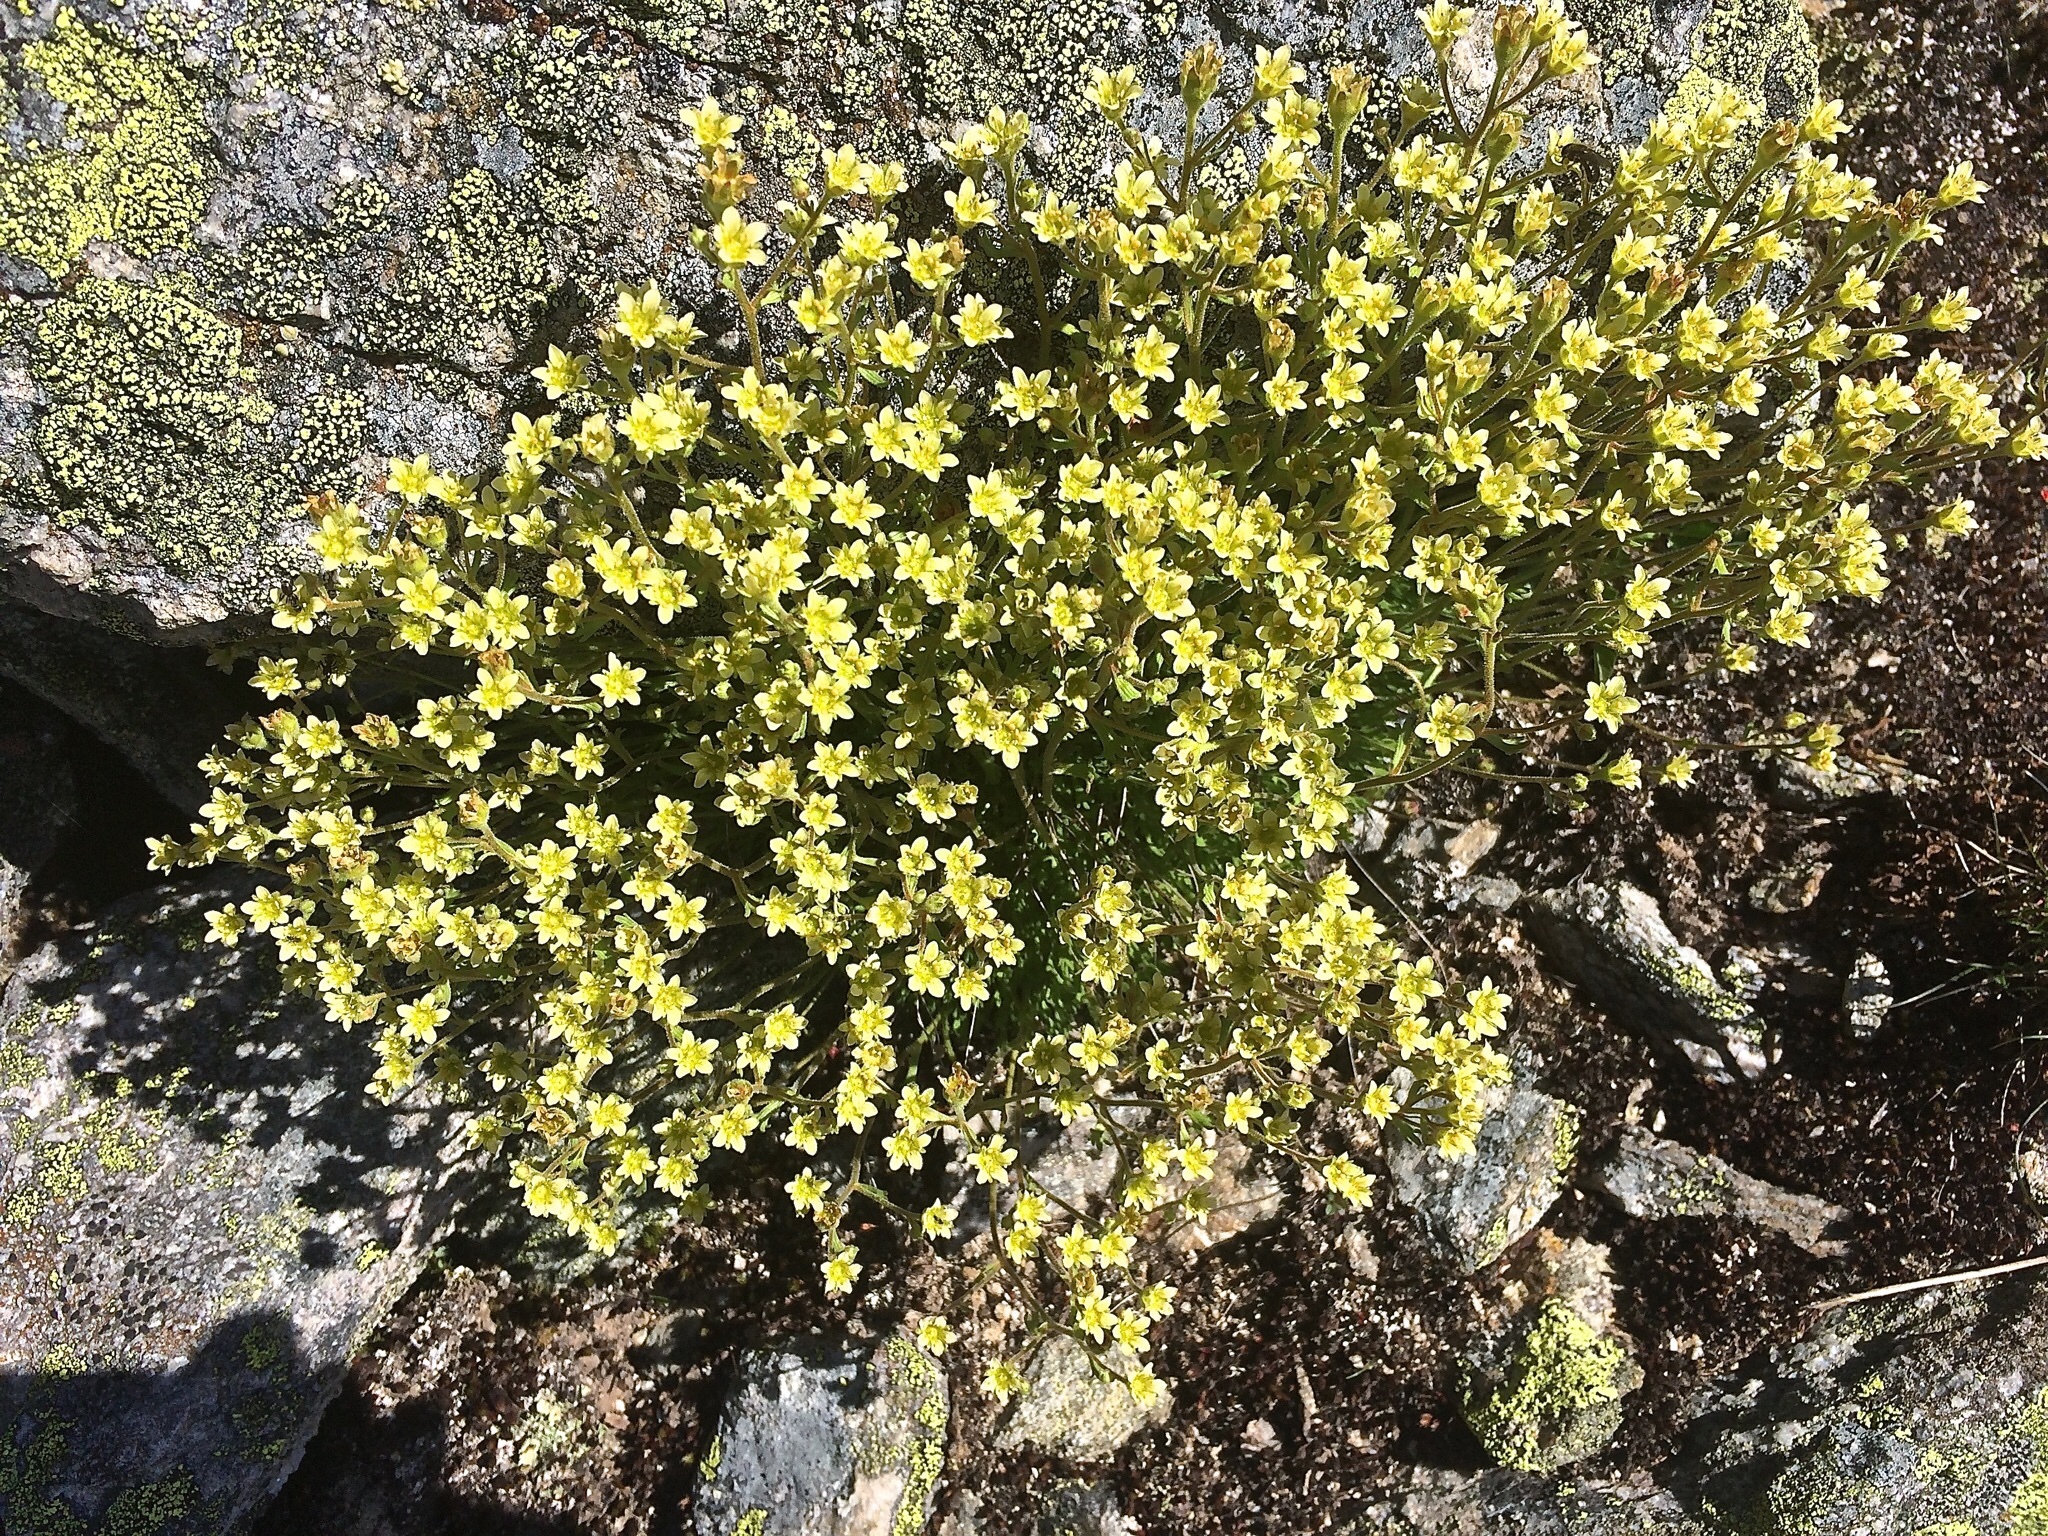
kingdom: Plantae
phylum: Tracheophyta
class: Magnoliopsida
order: Saxifragales
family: Saxifragaceae
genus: Saxifraga
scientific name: Saxifraga moschata
